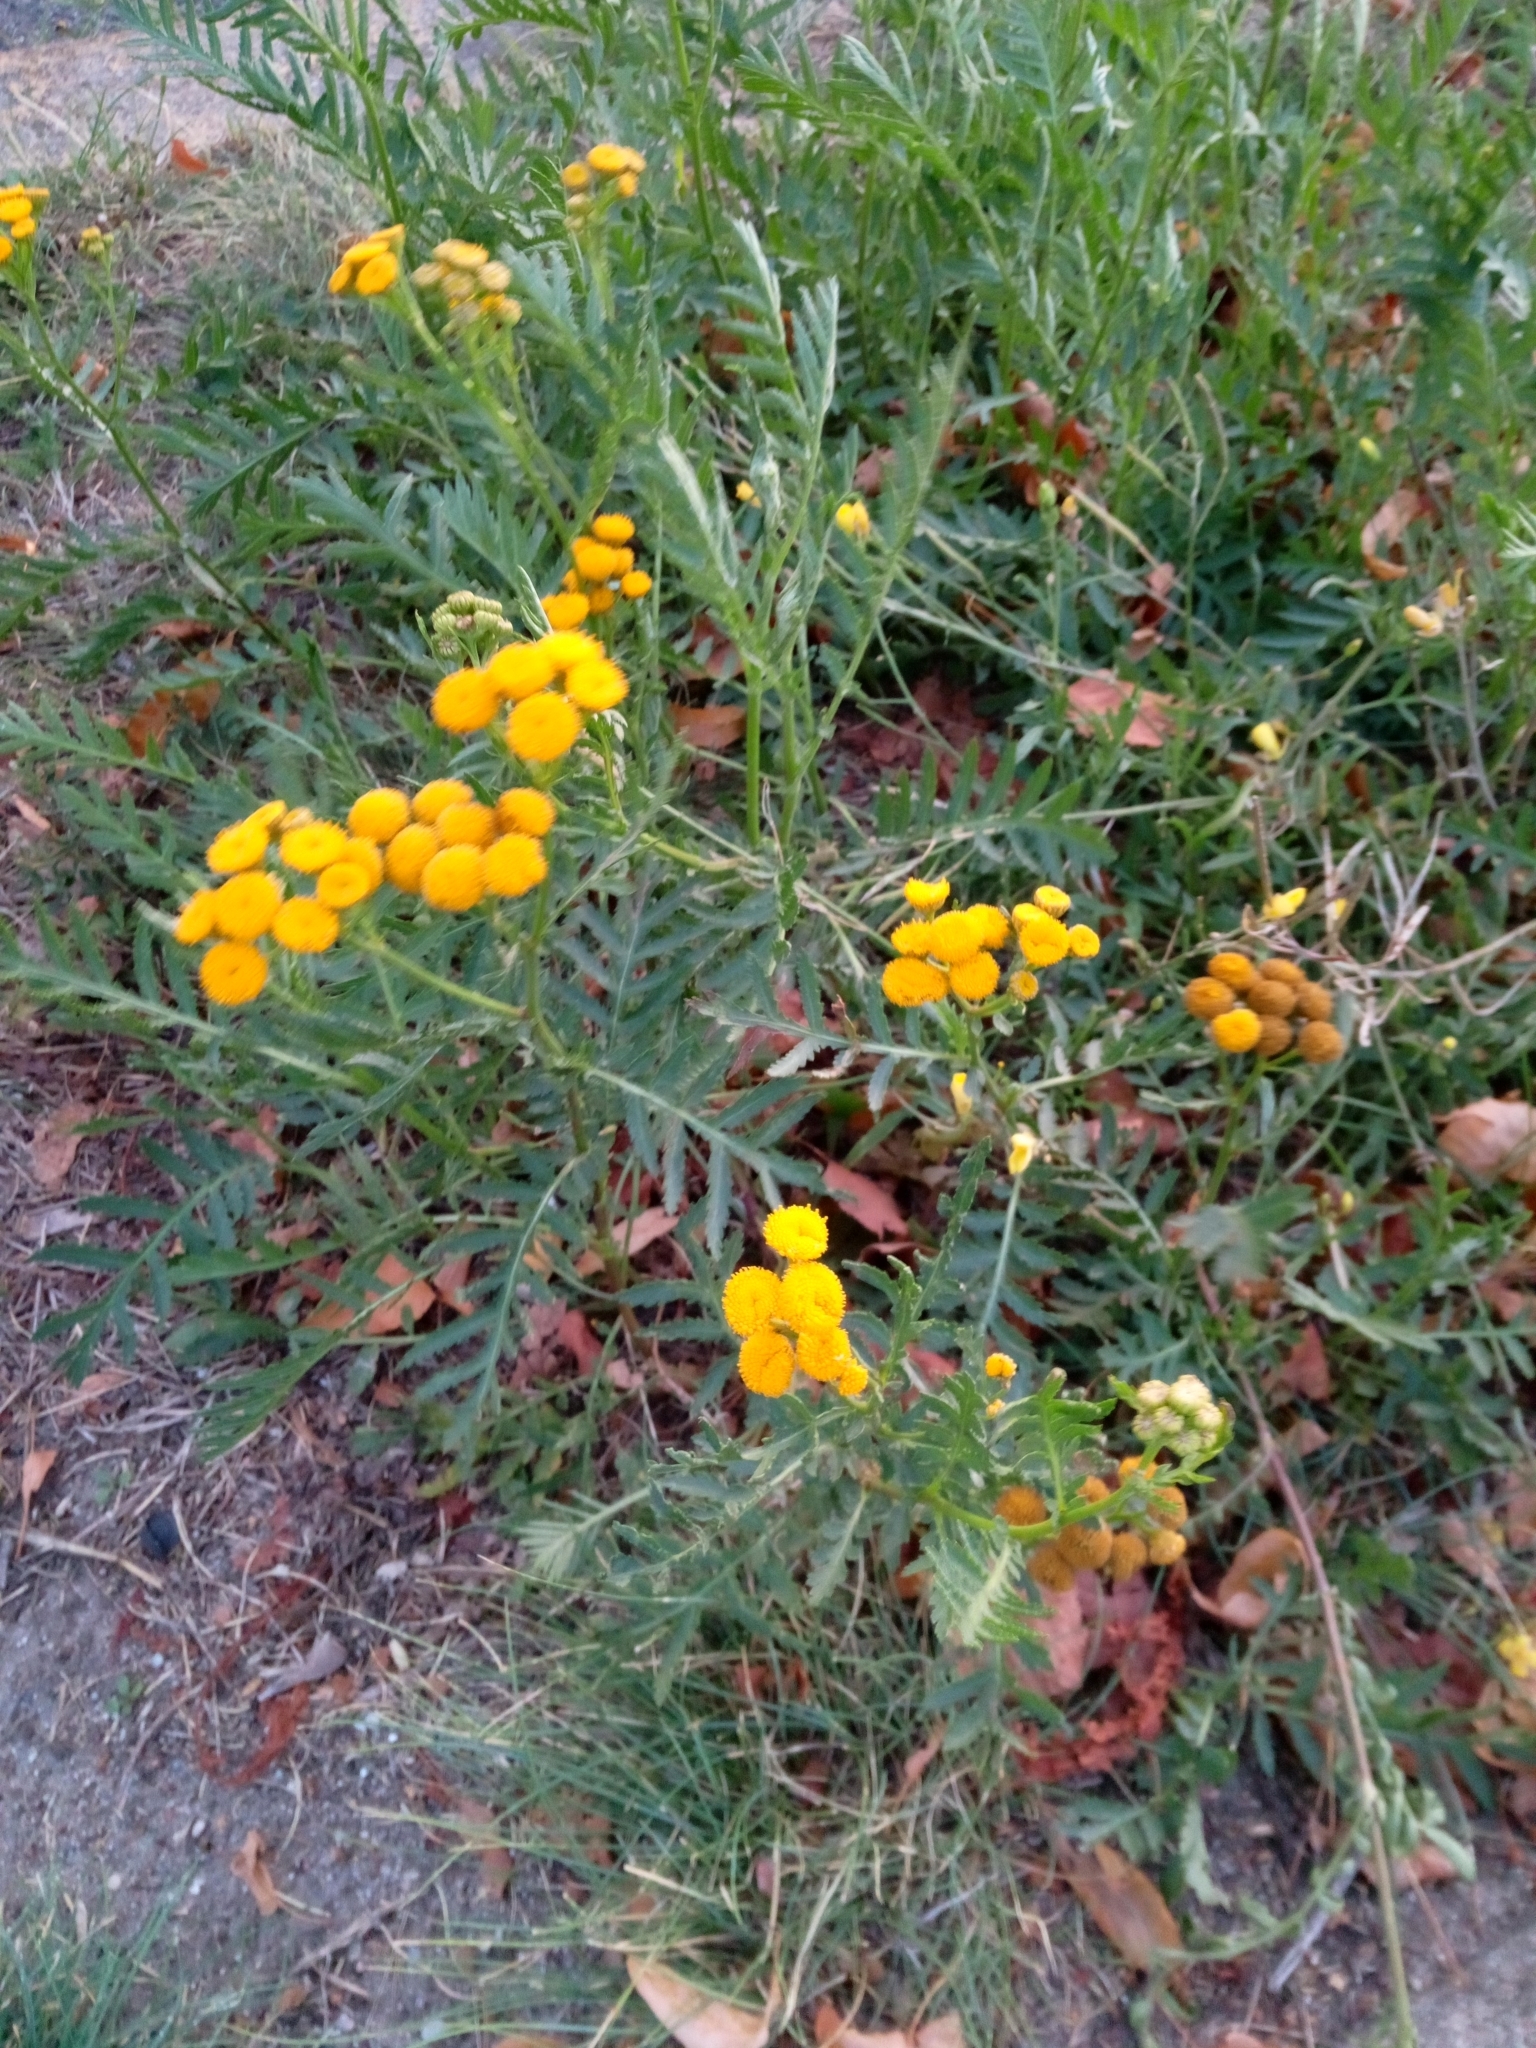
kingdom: Plantae
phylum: Tracheophyta
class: Magnoliopsida
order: Asterales
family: Asteraceae
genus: Tanacetum
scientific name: Tanacetum vulgare
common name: Common tansy
